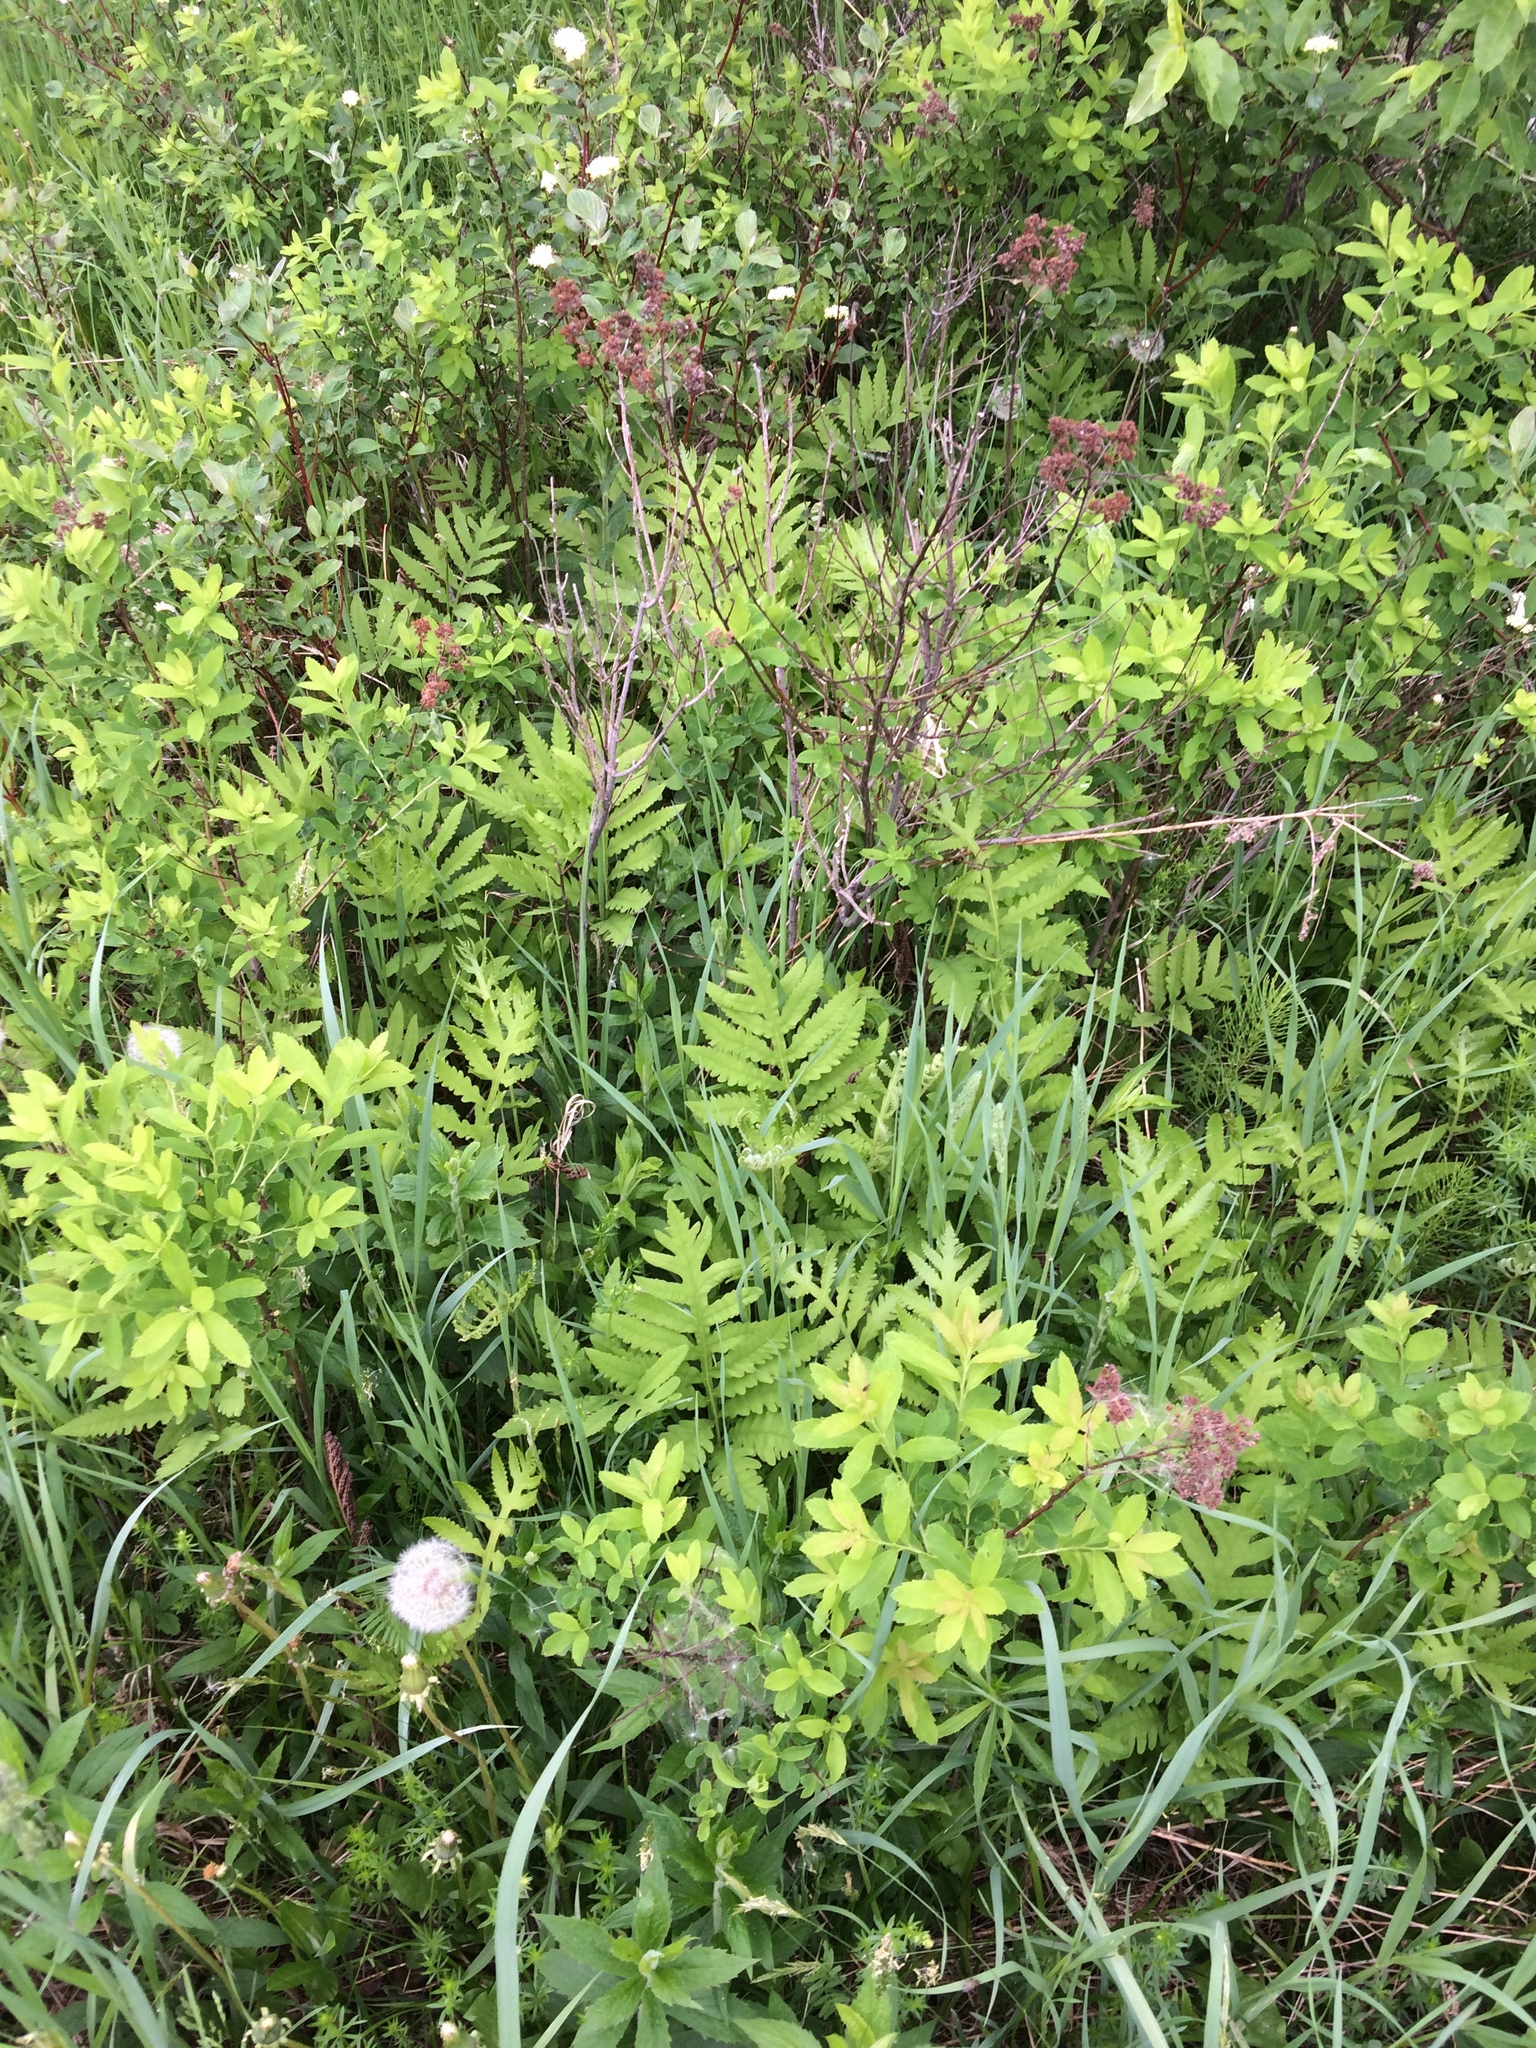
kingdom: Plantae
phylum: Tracheophyta
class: Magnoliopsida
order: Rosales
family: Rosaceae
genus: Spiraea
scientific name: Spiraea alba
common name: Pale bridewort
